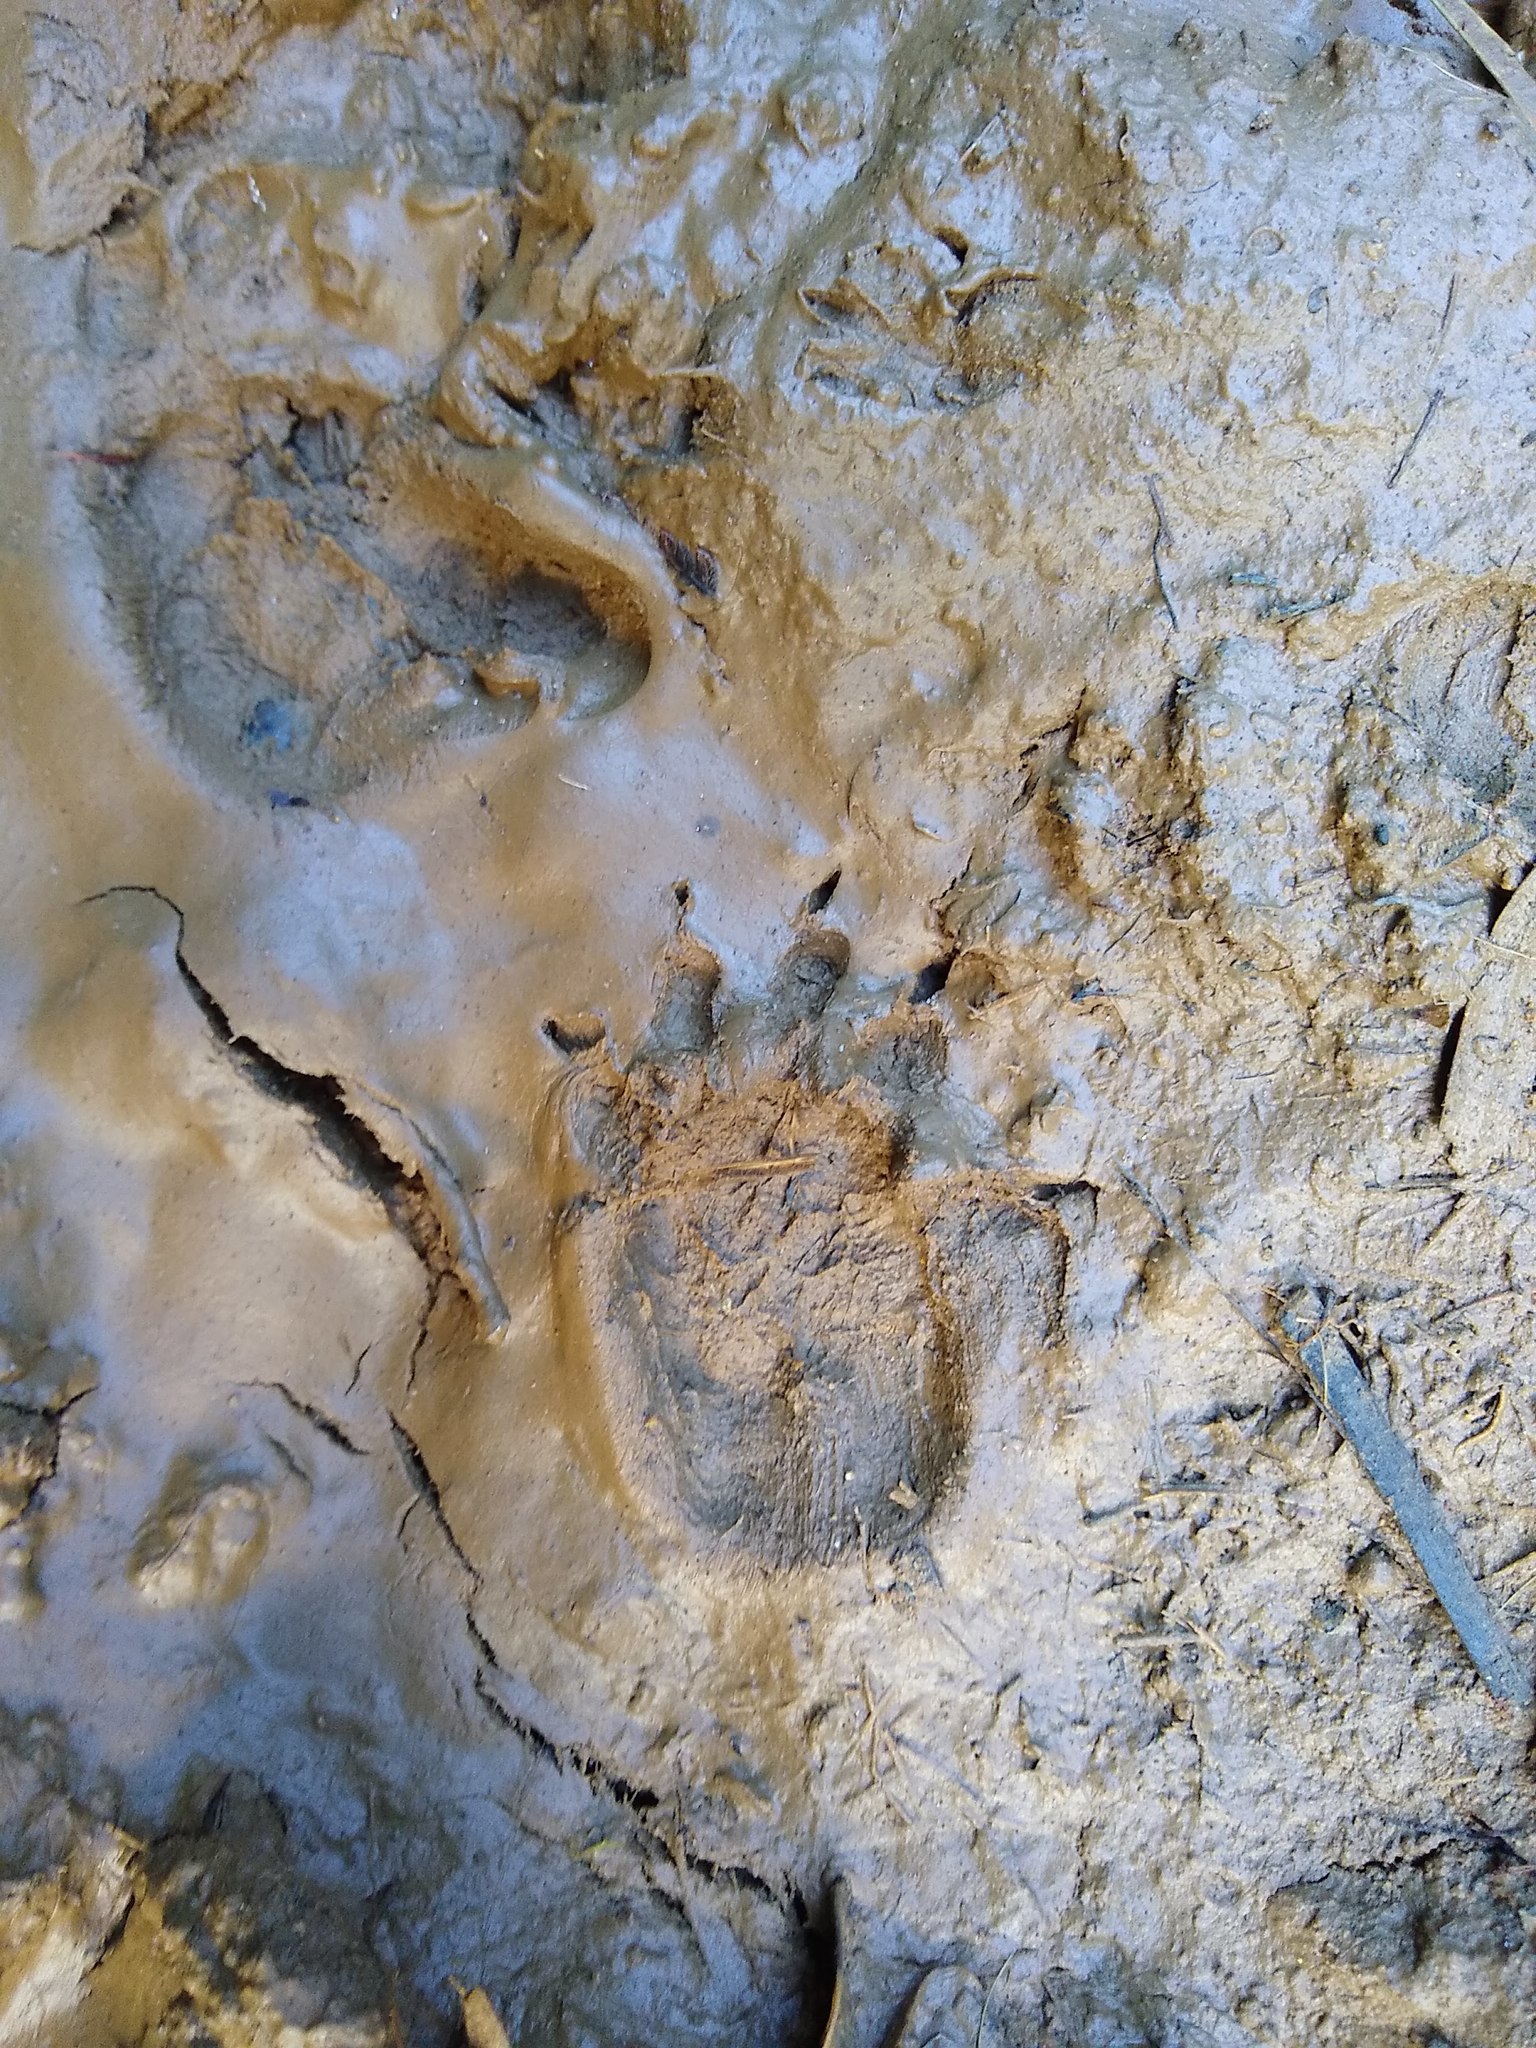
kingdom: Animalia
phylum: Chordata
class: Mammalia
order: Diprotodontia
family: Phalangeridae
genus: Trichosurus
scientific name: Trichosurus vulpecula
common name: Common brushtail
